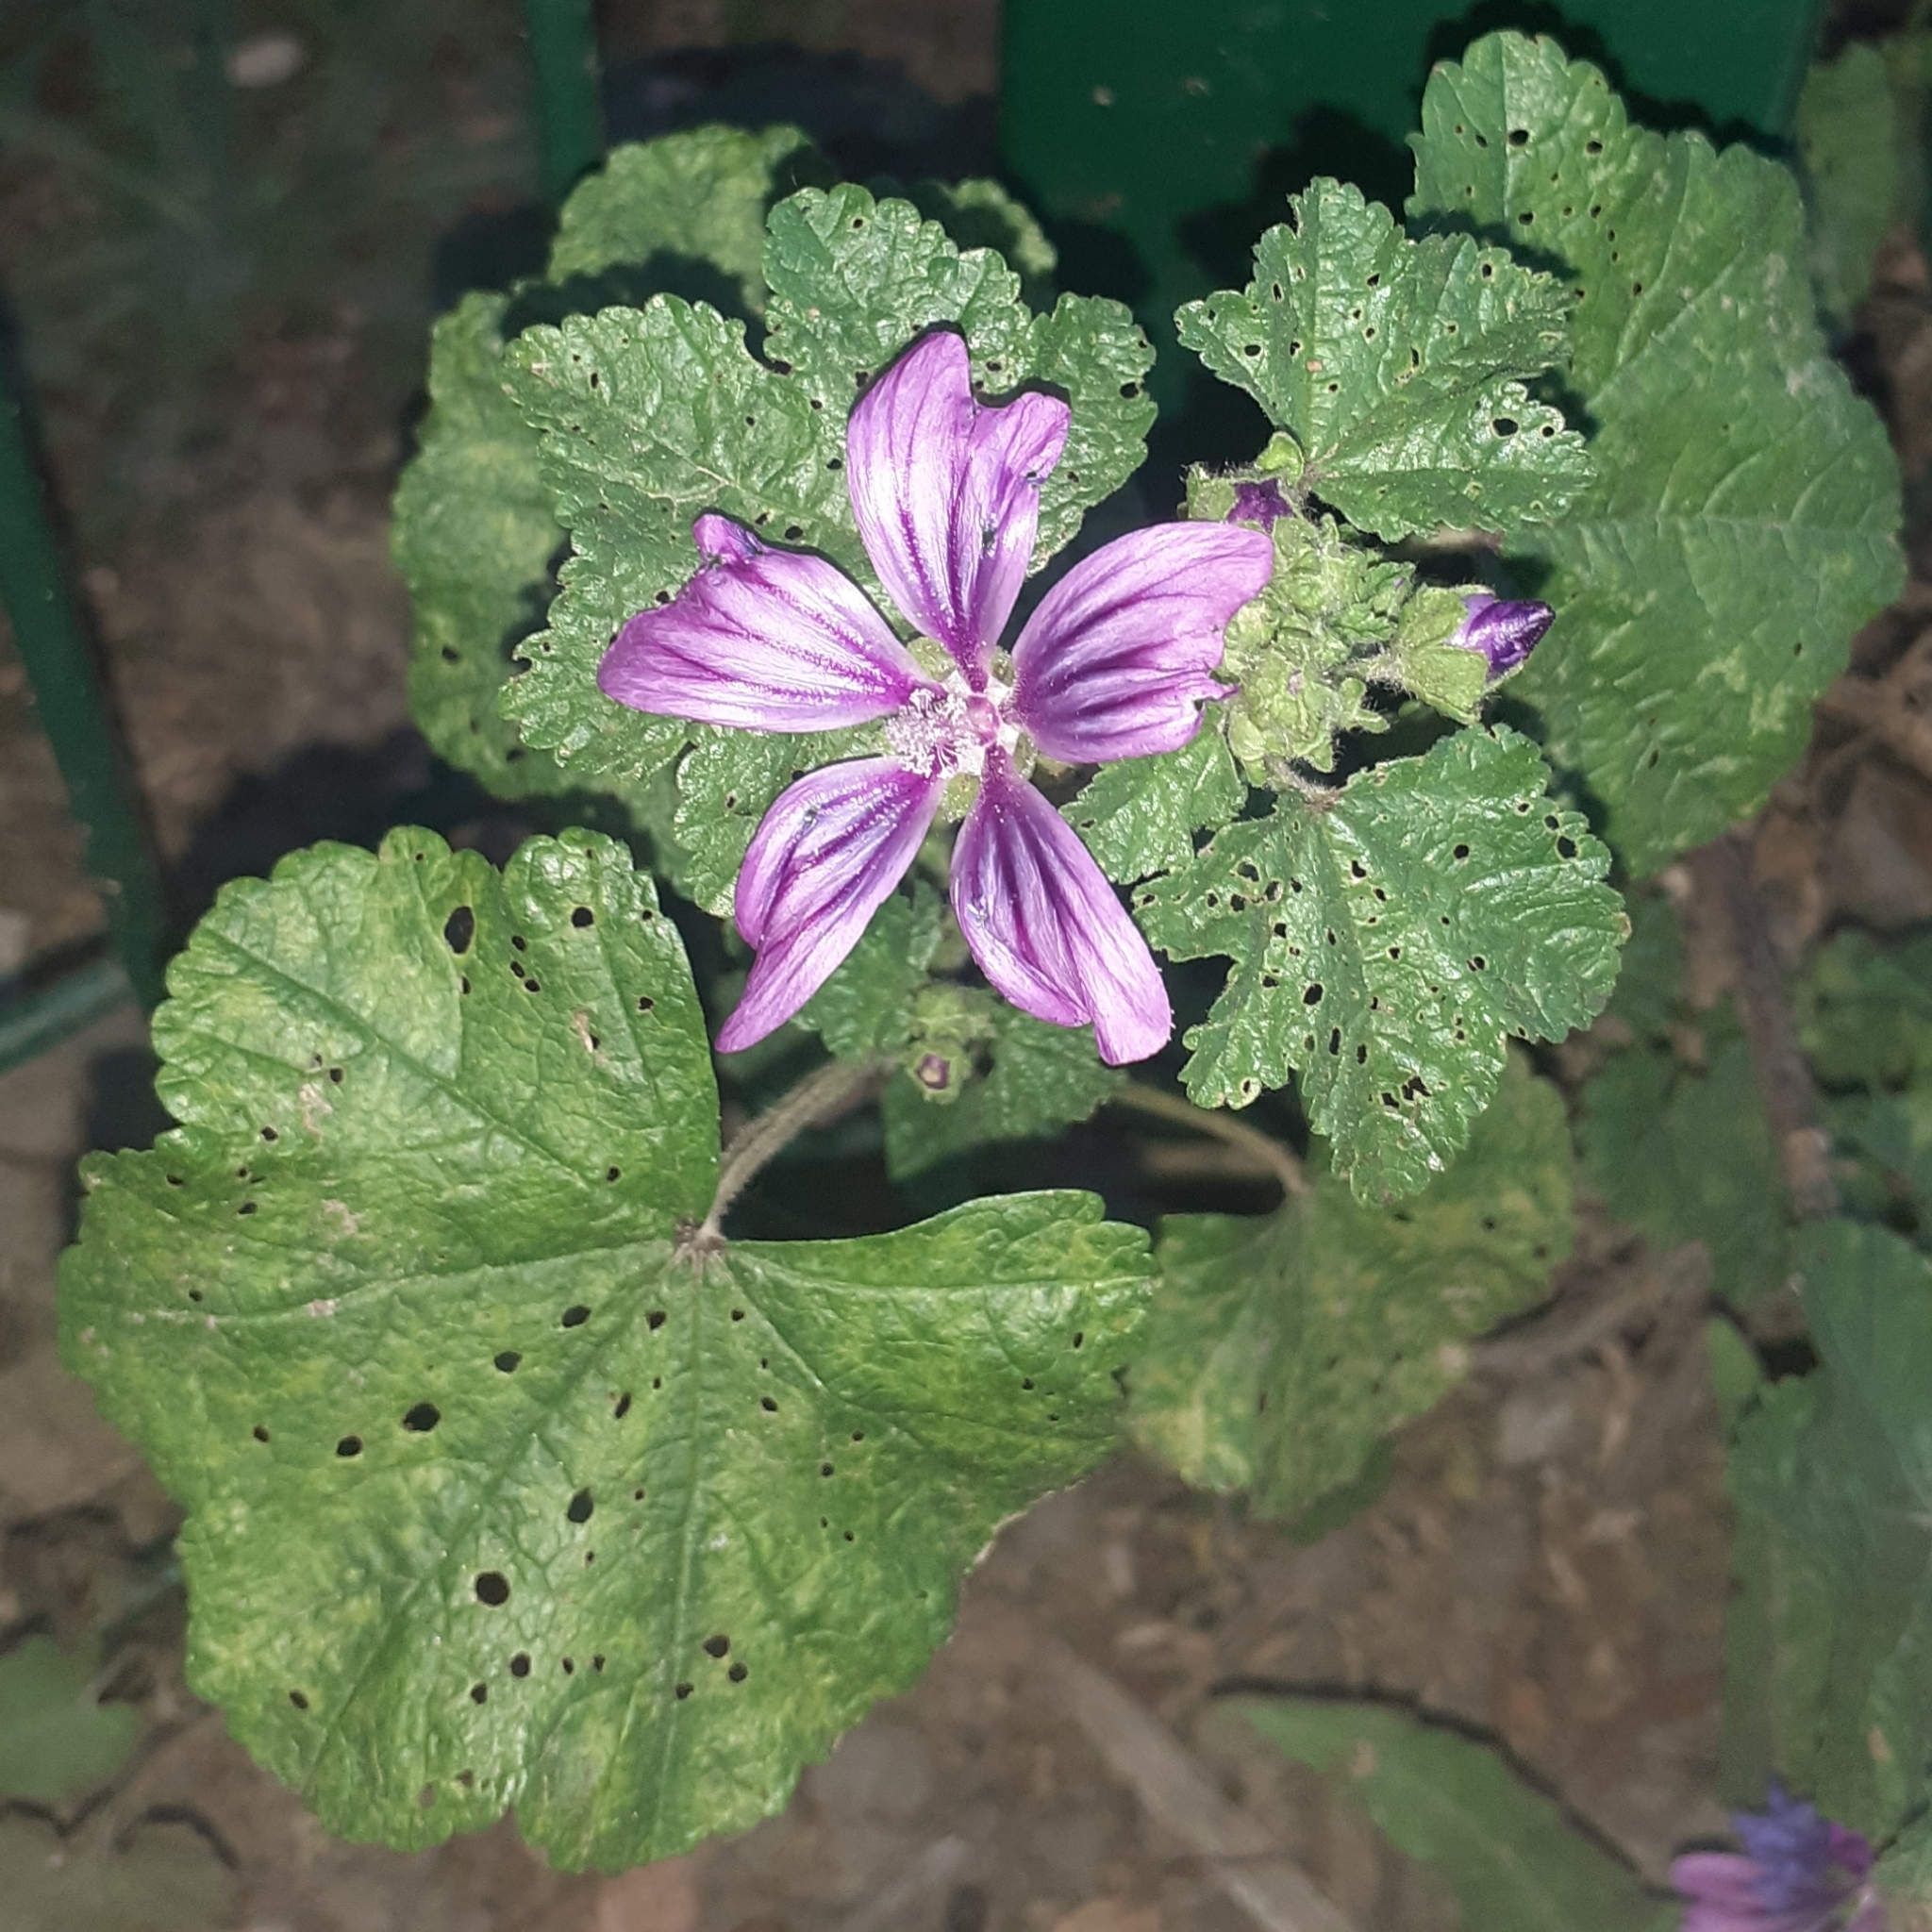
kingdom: Plantae
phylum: Tracheophyta
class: Magnoliopsida
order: Malvales
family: Malvaceae
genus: Malva
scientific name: Malva sylvestris
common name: Common mallow
